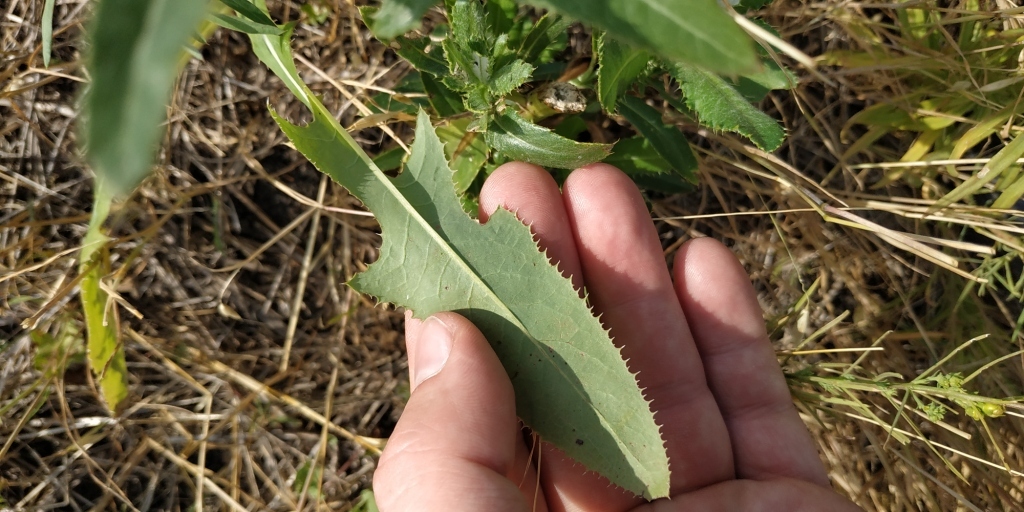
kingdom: Plantae
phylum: Tracheophyta
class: Magnoliopsida
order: Asterales
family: Asteraceae
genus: Sonchus
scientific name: Sonchus arvensis
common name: Perennial sow-thistle
